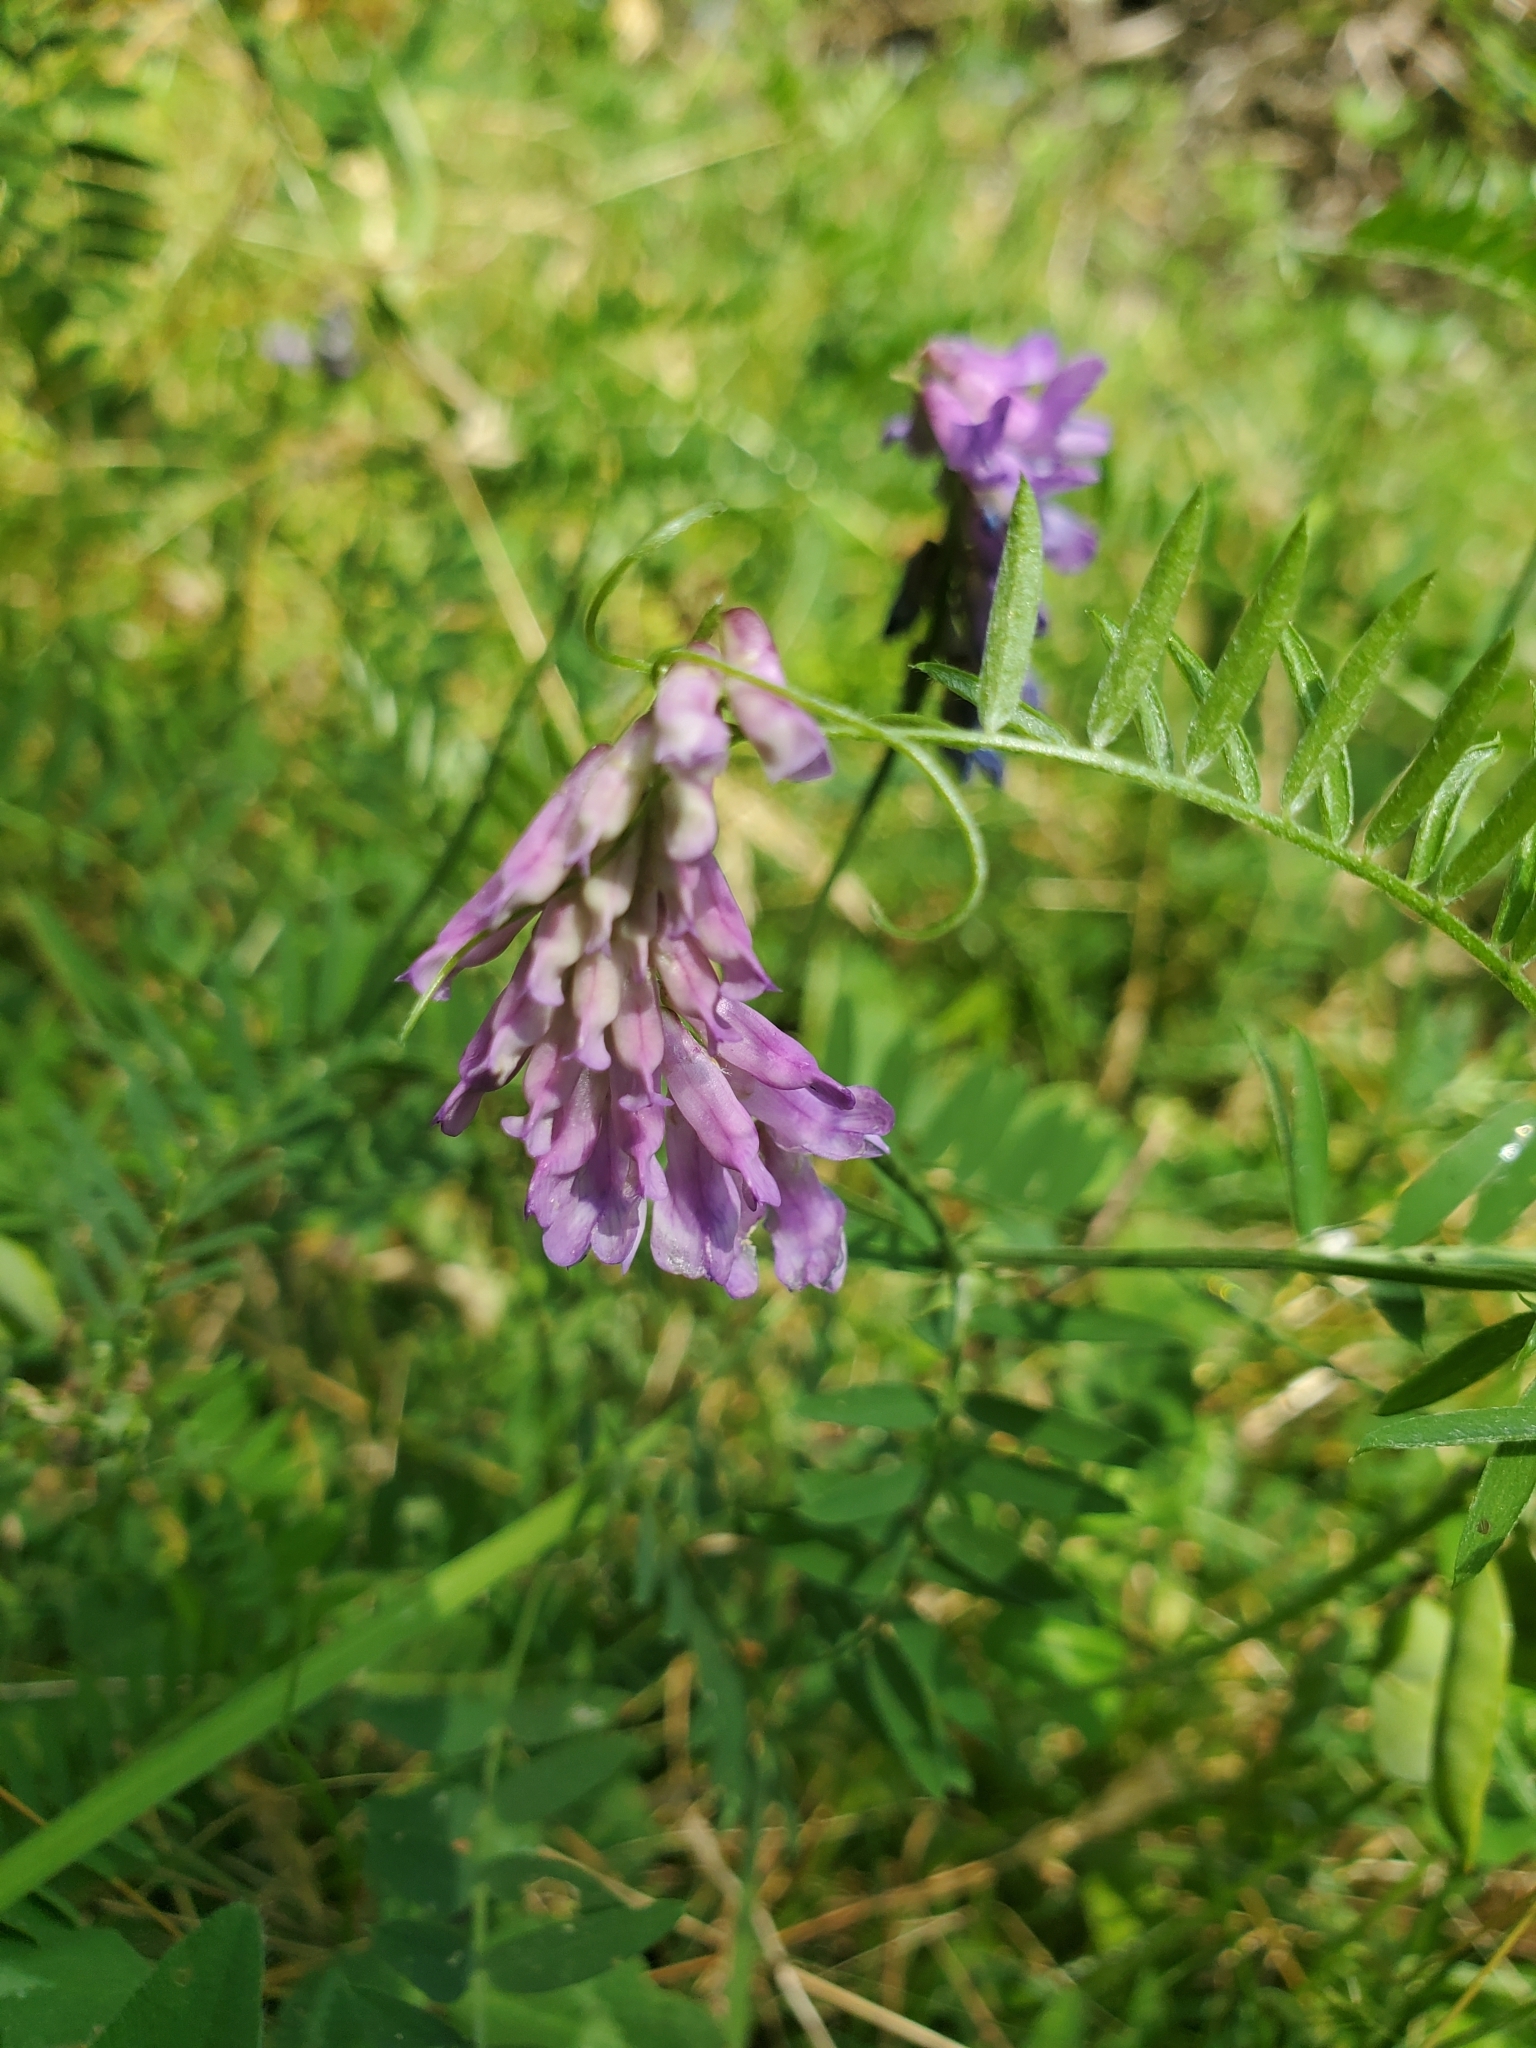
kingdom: Plantae
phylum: Tracheophyta
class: Magnoliopsida
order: Fabales
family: Fabaceae
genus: Vicia
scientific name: Vicia cracca
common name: Bird vetch
